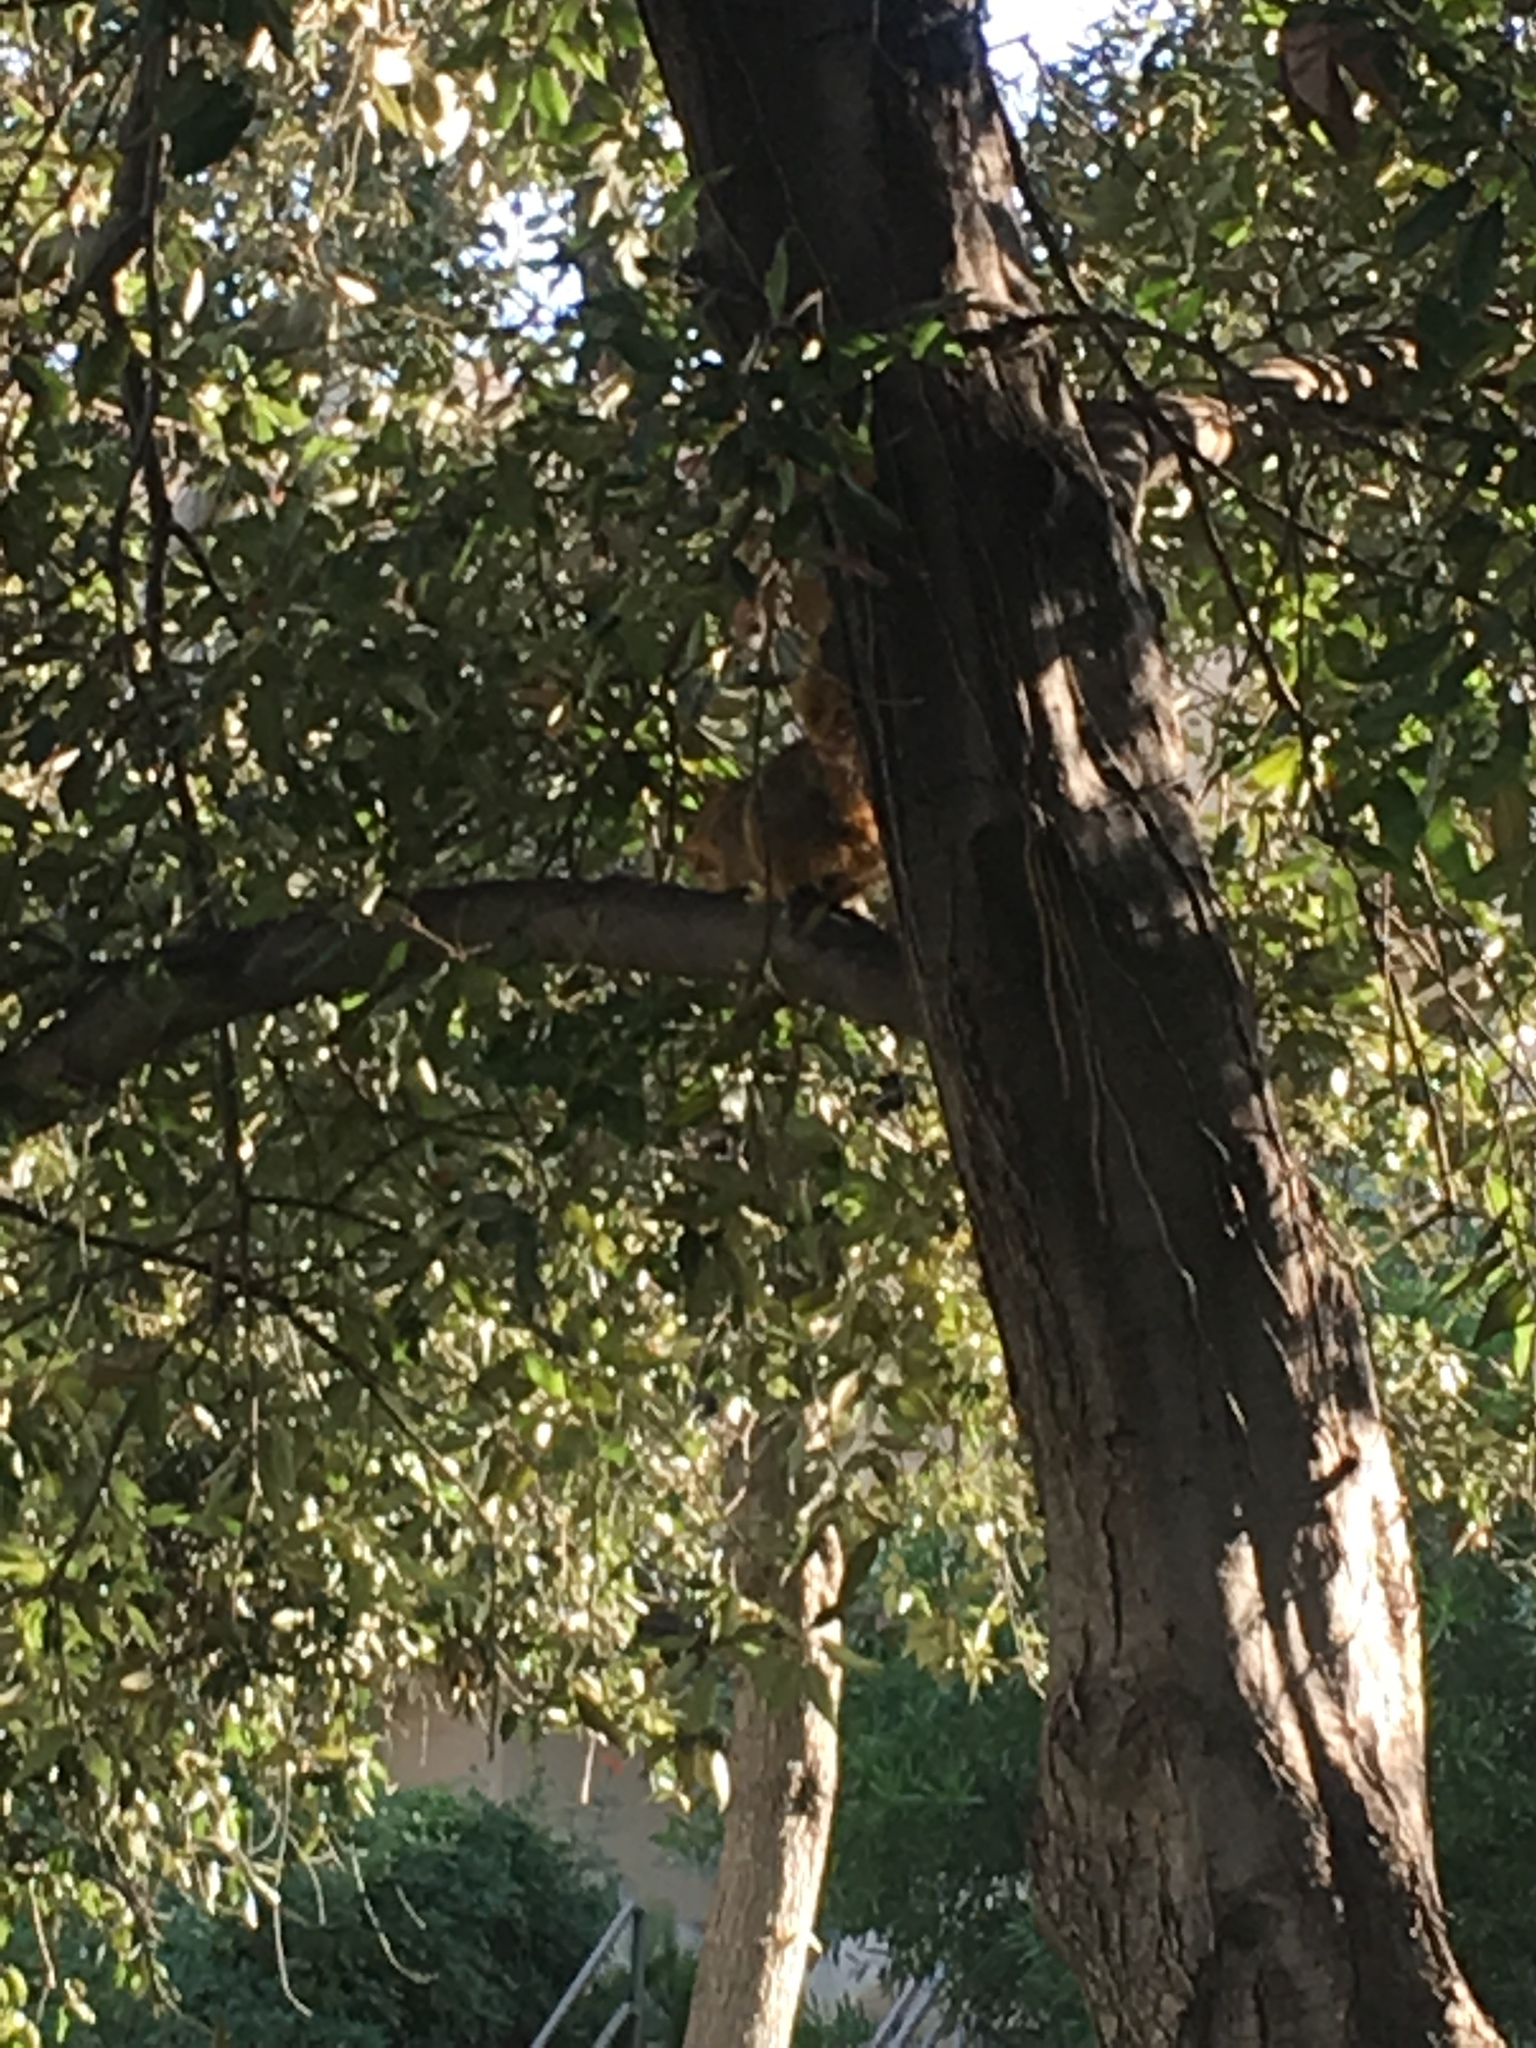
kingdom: Animalia
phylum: Chordata
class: Mammalia
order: Rodentia
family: Sciuridae
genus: Sciurus
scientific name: Sciurus niger
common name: Fox squirrel
